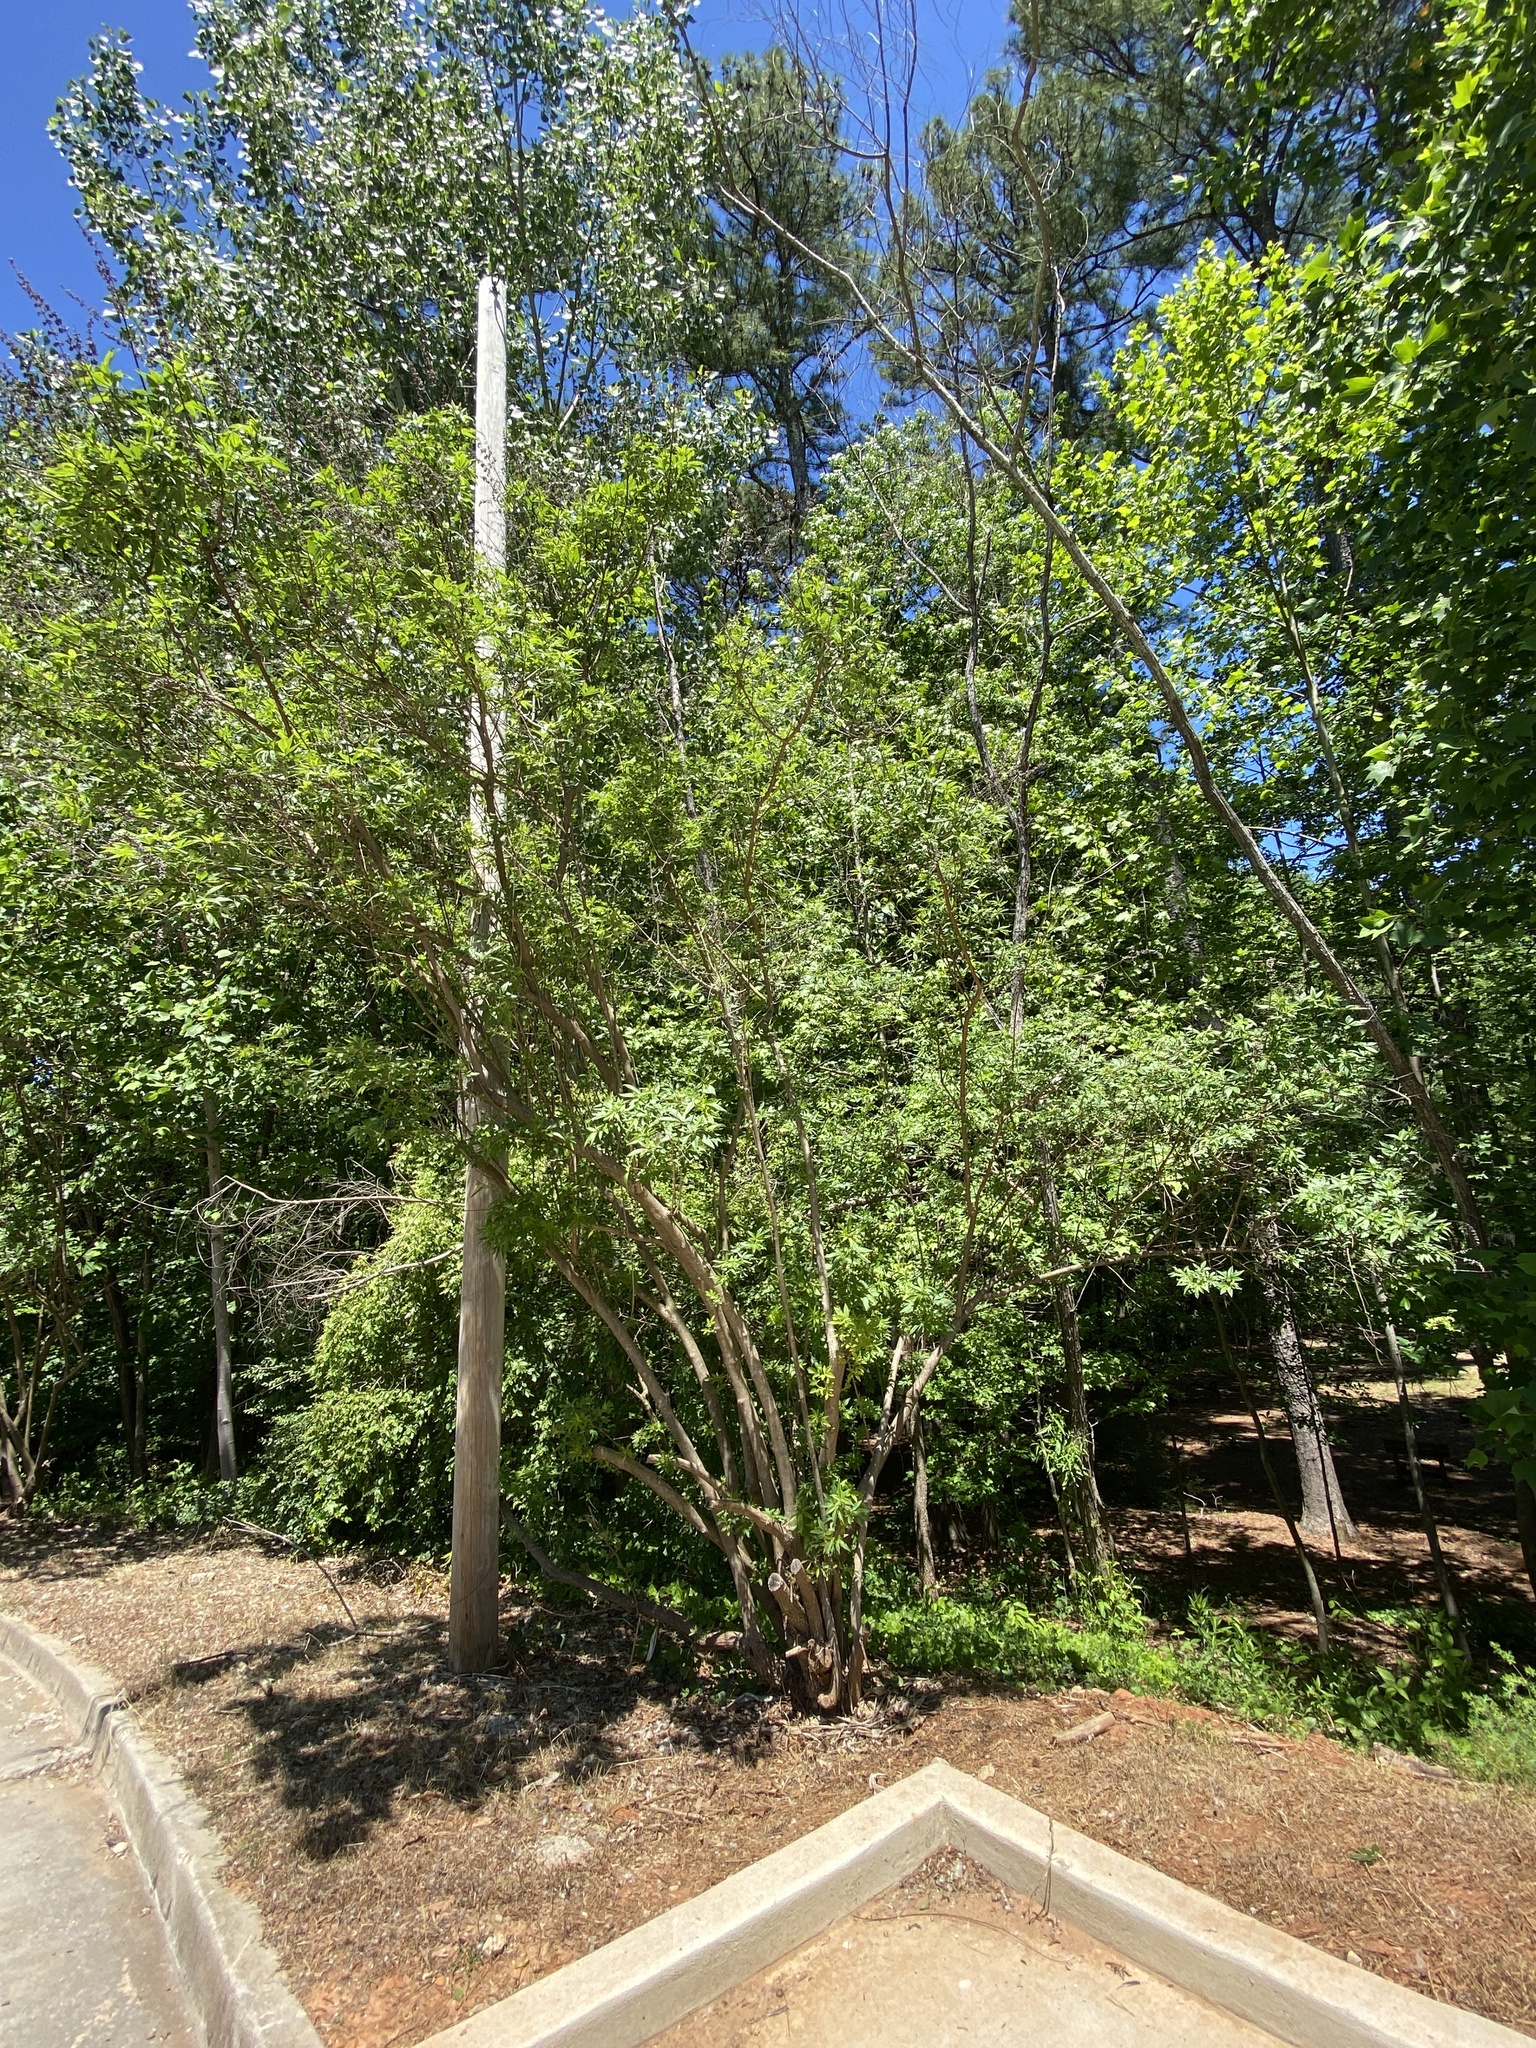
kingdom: Plantae
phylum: Tracheophyta
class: Magnoliopsida
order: Lamiales
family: Lamiaceae
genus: Vitex
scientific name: Vitex agnus-castus
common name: Chasteberry
